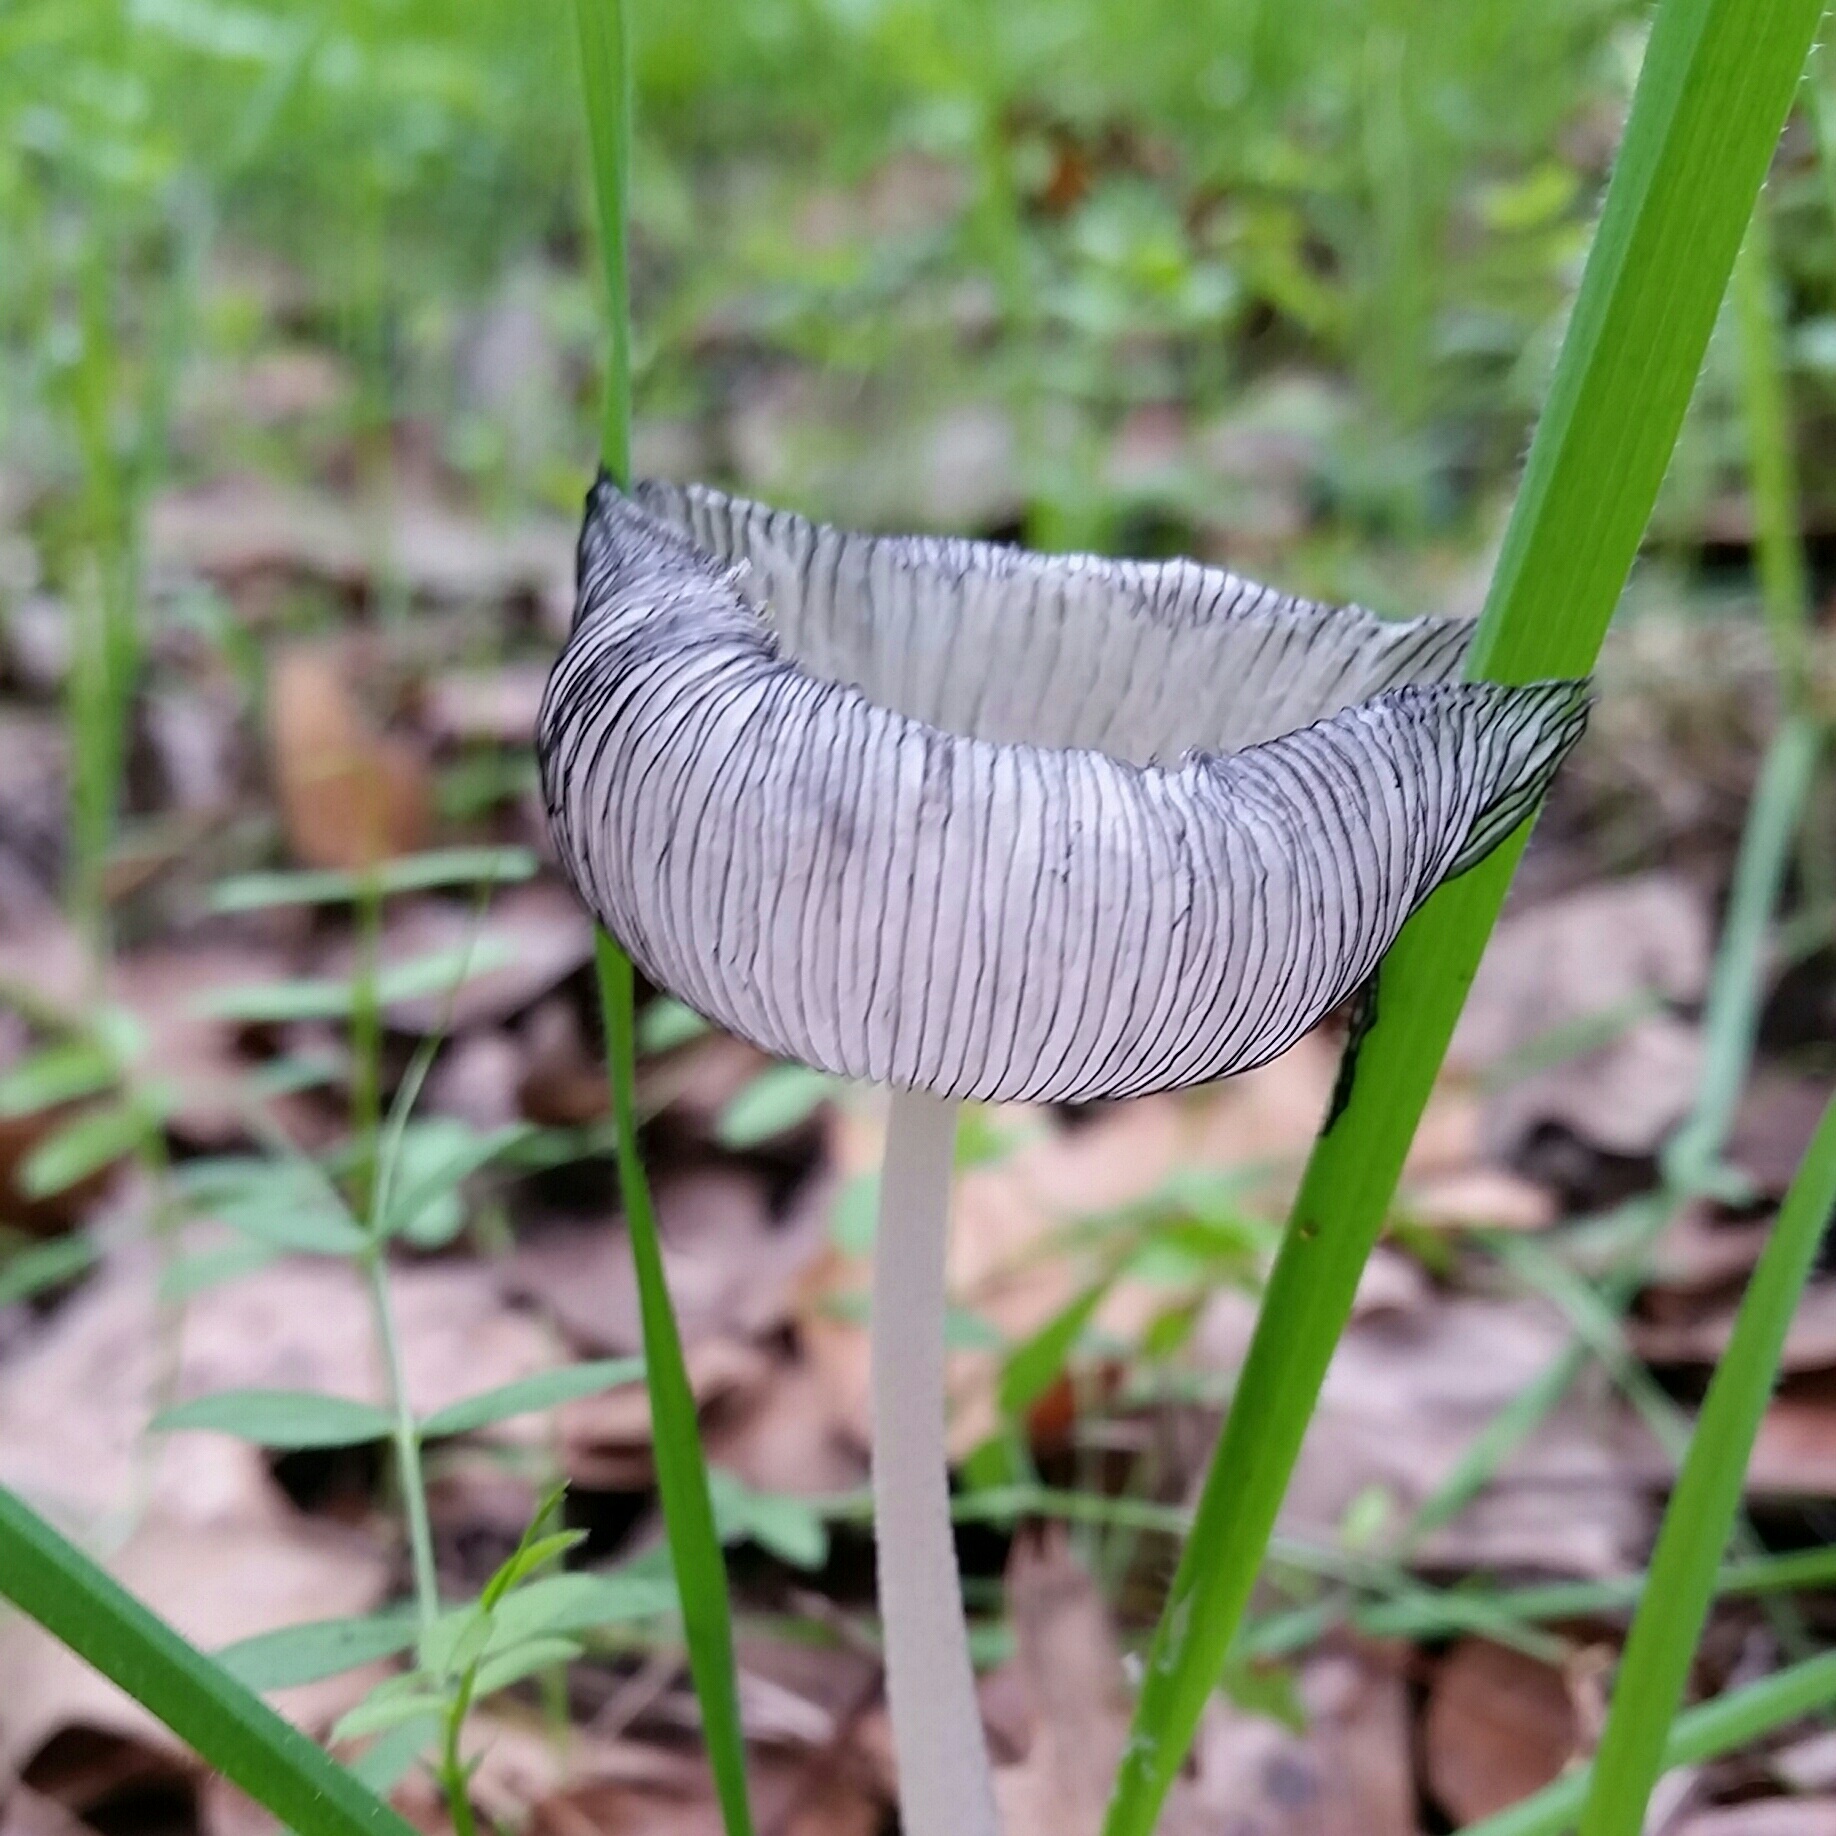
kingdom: Fungi
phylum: Basidiomycota
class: Agaricomycetes
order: Agaricales
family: Psathyrellaceae
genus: Coprinopsis
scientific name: Coprinopsis lagopus
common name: Hare'sfoot inkcap
